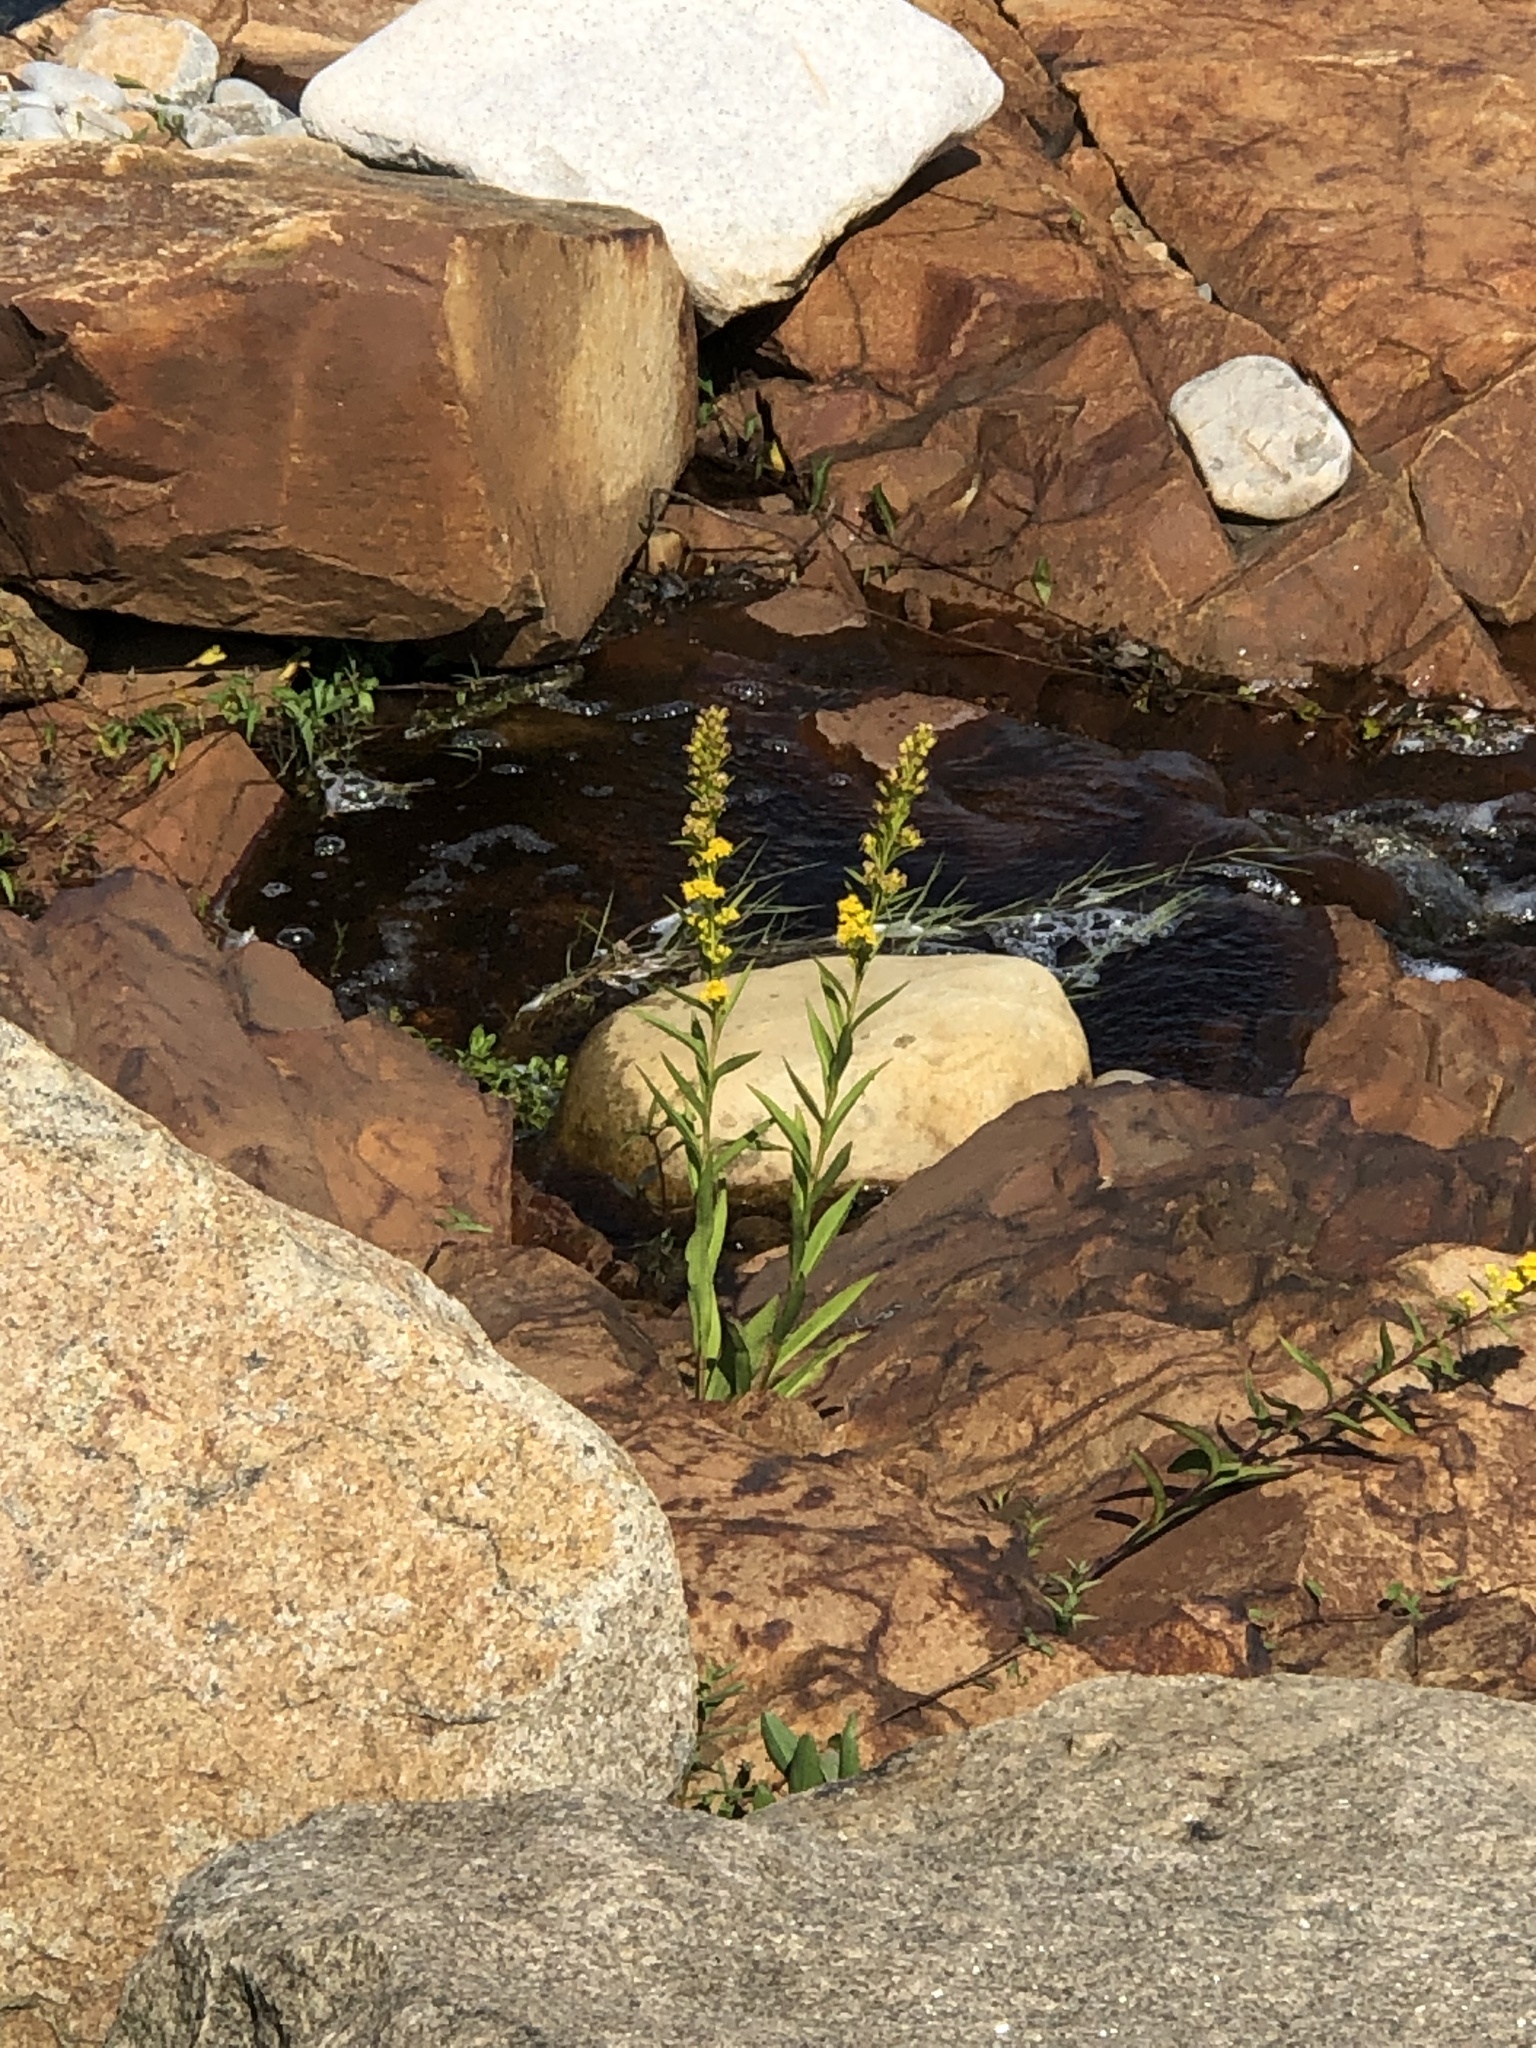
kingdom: Plantae
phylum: Tracheophyta
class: Magnoliopsida
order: Asterales
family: Asteraceae
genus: Solidago
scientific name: Solidago sempervirens
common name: Salt-marsh goldenrod
